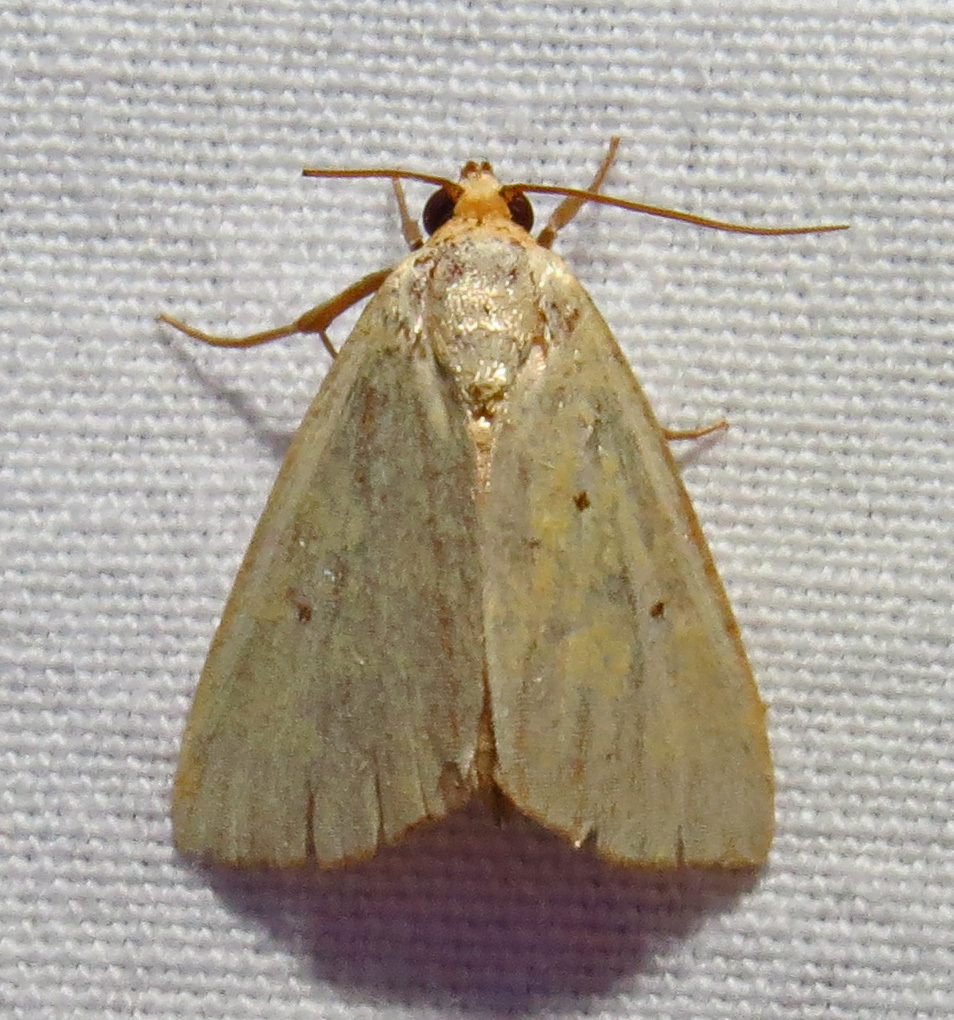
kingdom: Animalia
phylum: Arthropoda
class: Insecta
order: Lepidoptera
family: Noctuidae
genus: Marimatha
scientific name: Marimatha nigrofimbria
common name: Black-bordered lemon moth
